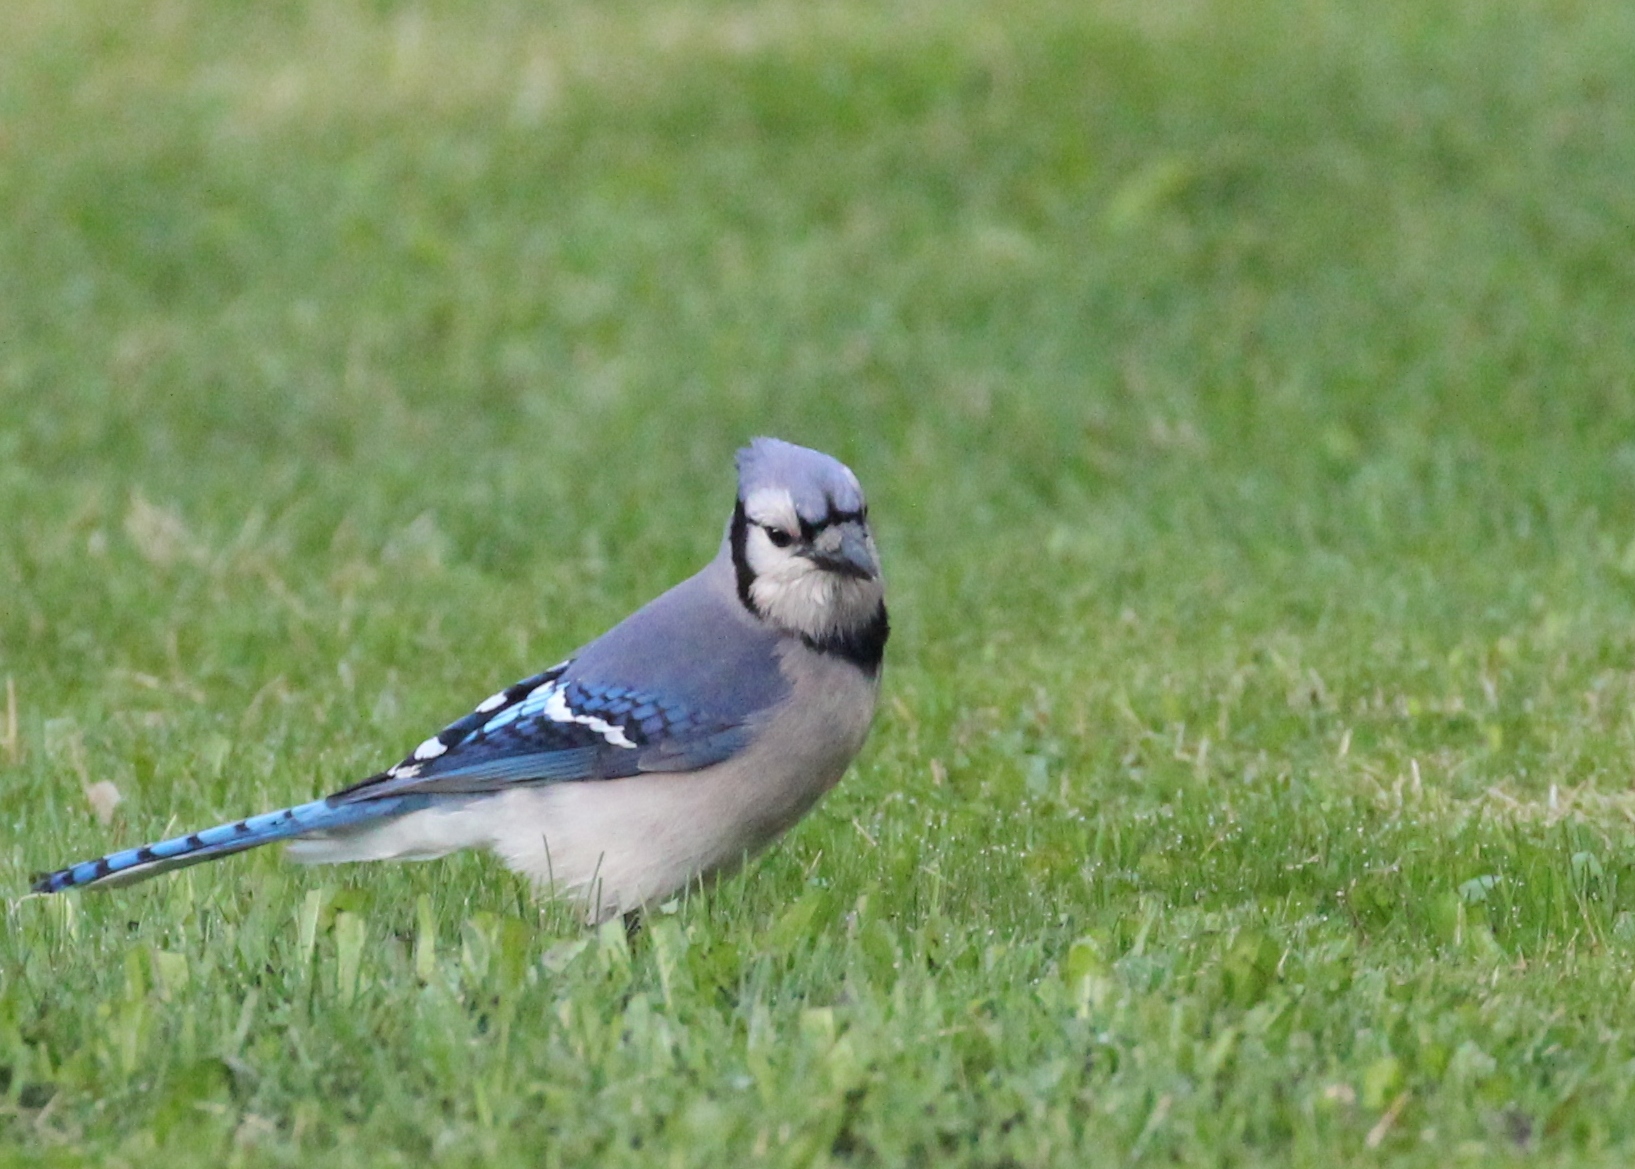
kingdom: Animalia
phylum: Chordata
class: Aves
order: Passeriformes
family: Corvidae
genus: Cyanocitta
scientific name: Cyanocitta cristata
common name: Blue jay
